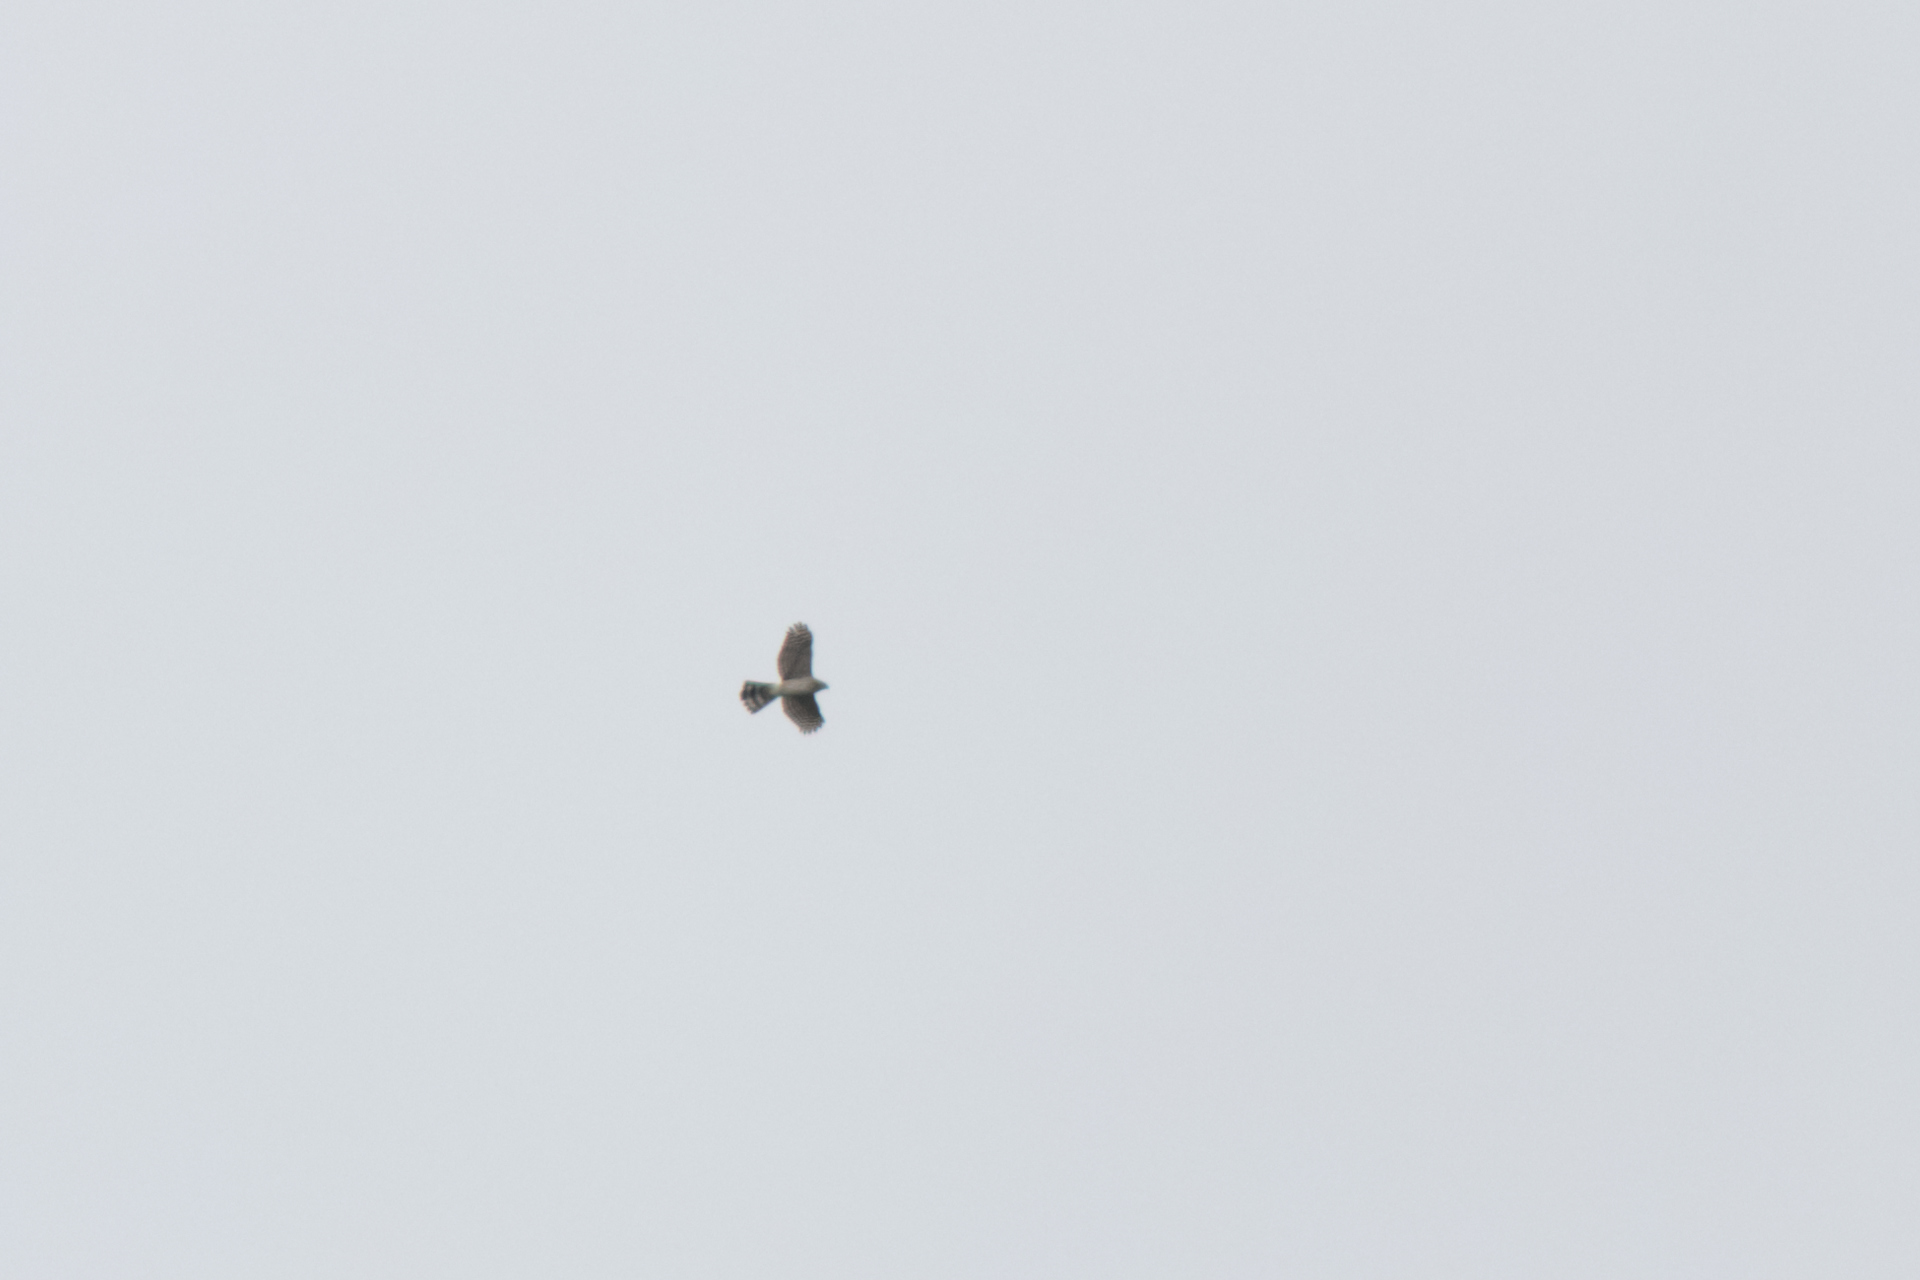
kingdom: Animalia
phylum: Chordata
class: Aves
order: Accipitriformes
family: Accipitridae
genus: Accipiter
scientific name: Accipiter cooperii
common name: Cooper's hawk
